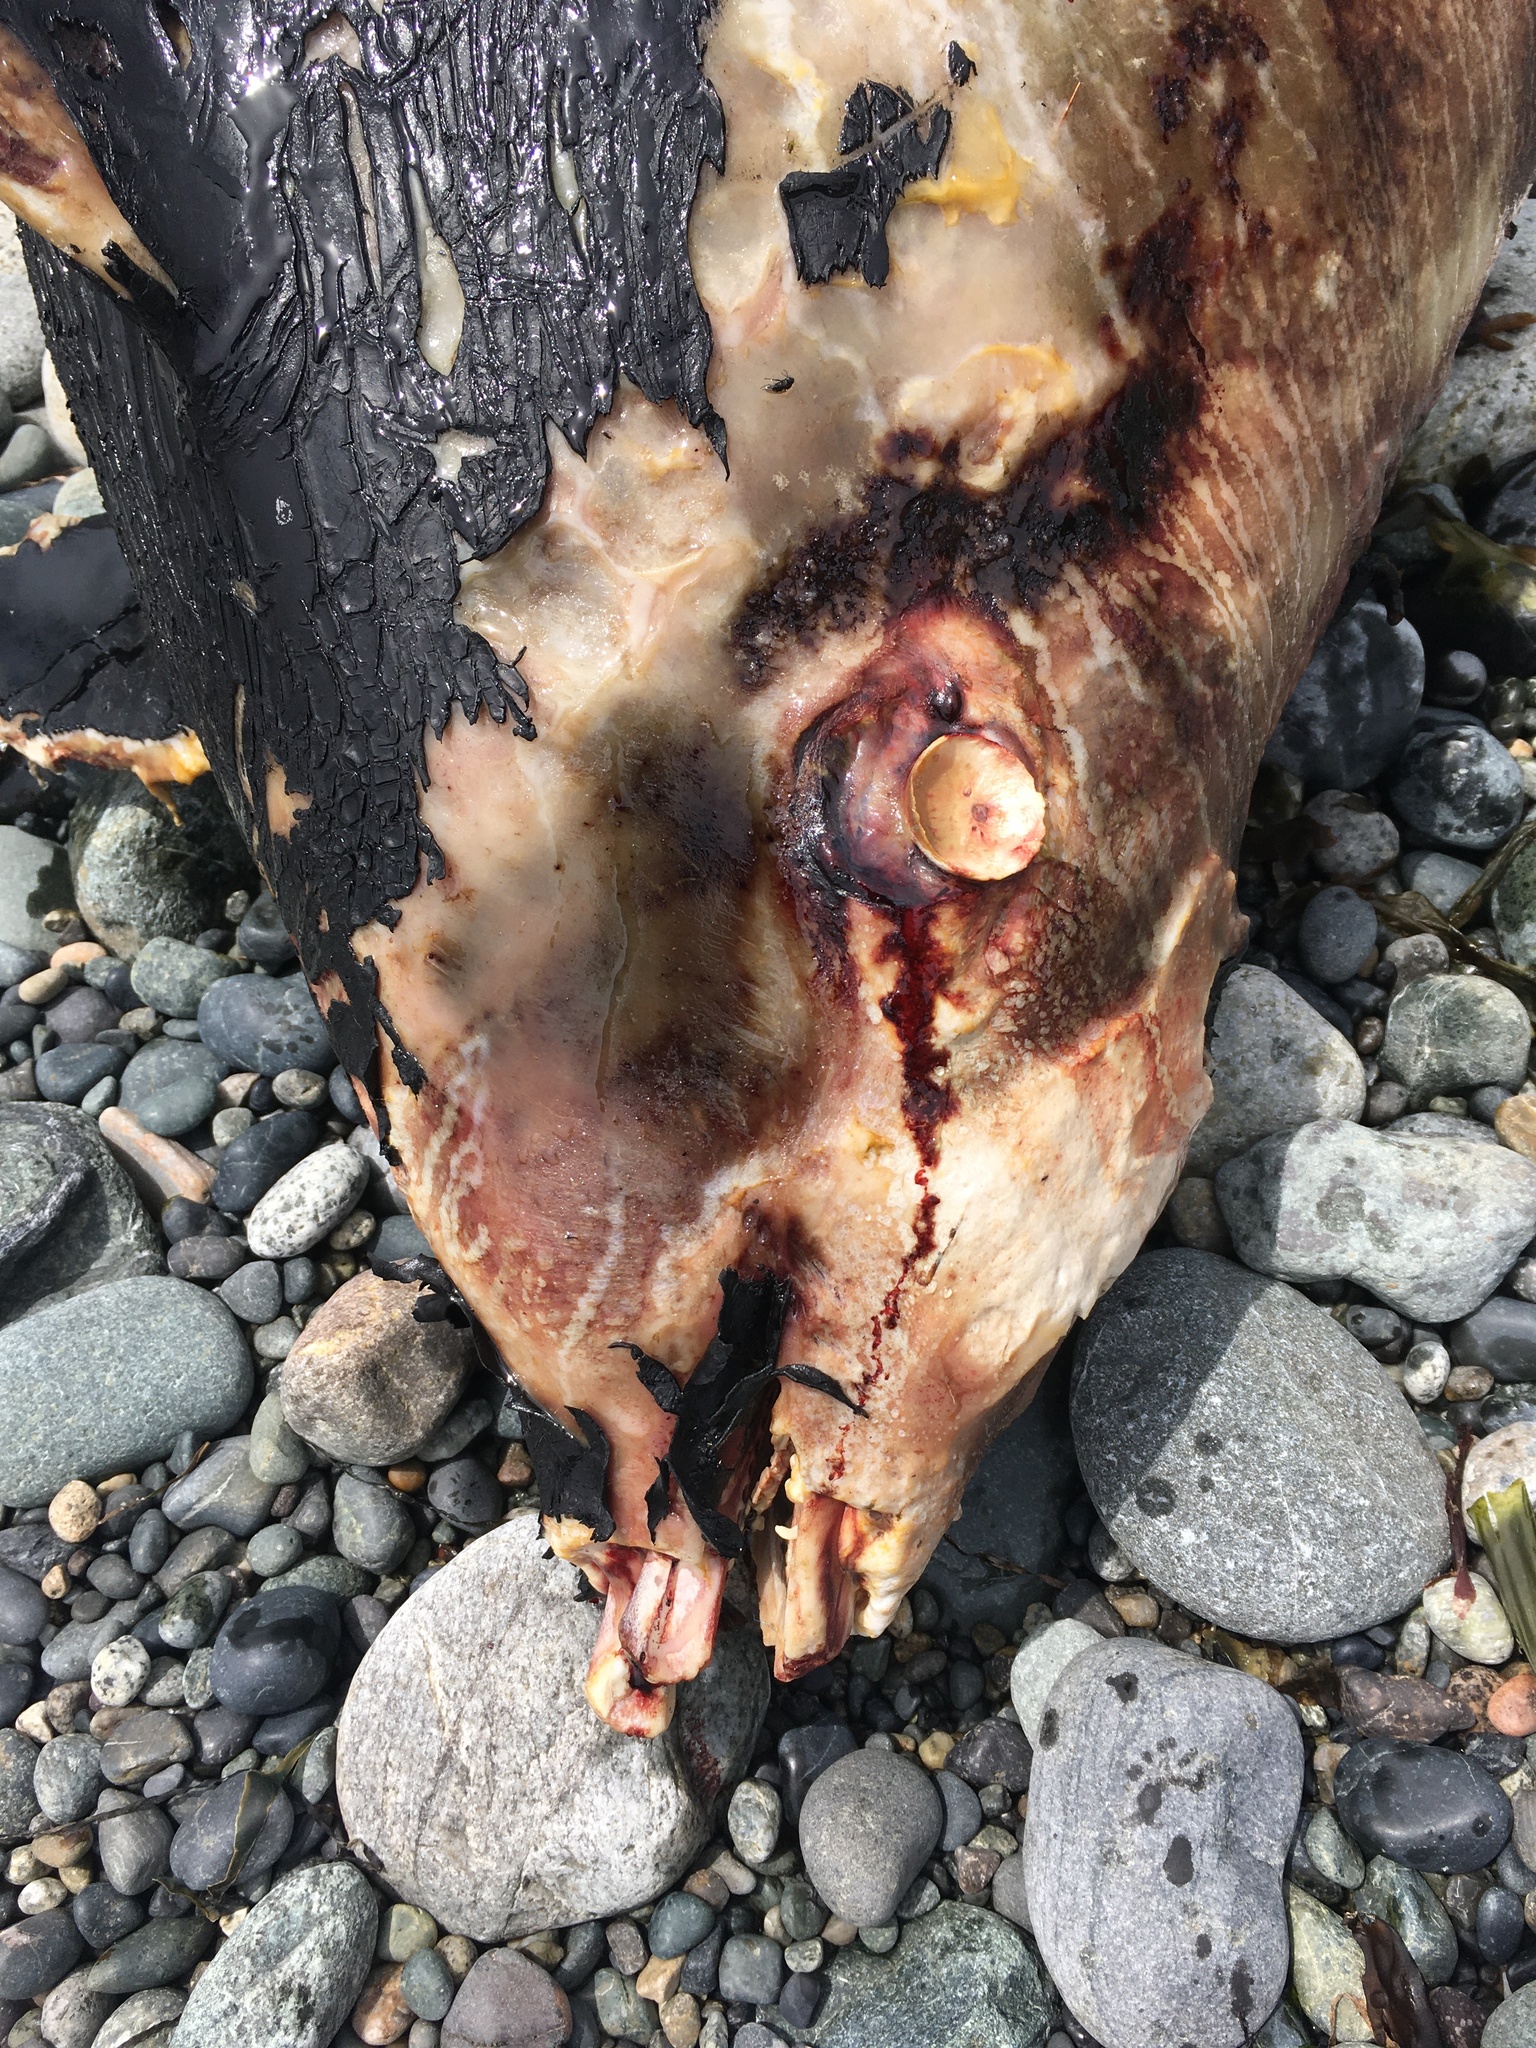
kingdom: Animalia
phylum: Chordata
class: Mammalia
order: Cetacea
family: Phocoenidae
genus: Phocoenoides
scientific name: Phocoenoides dalli
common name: Dall's porpoise
